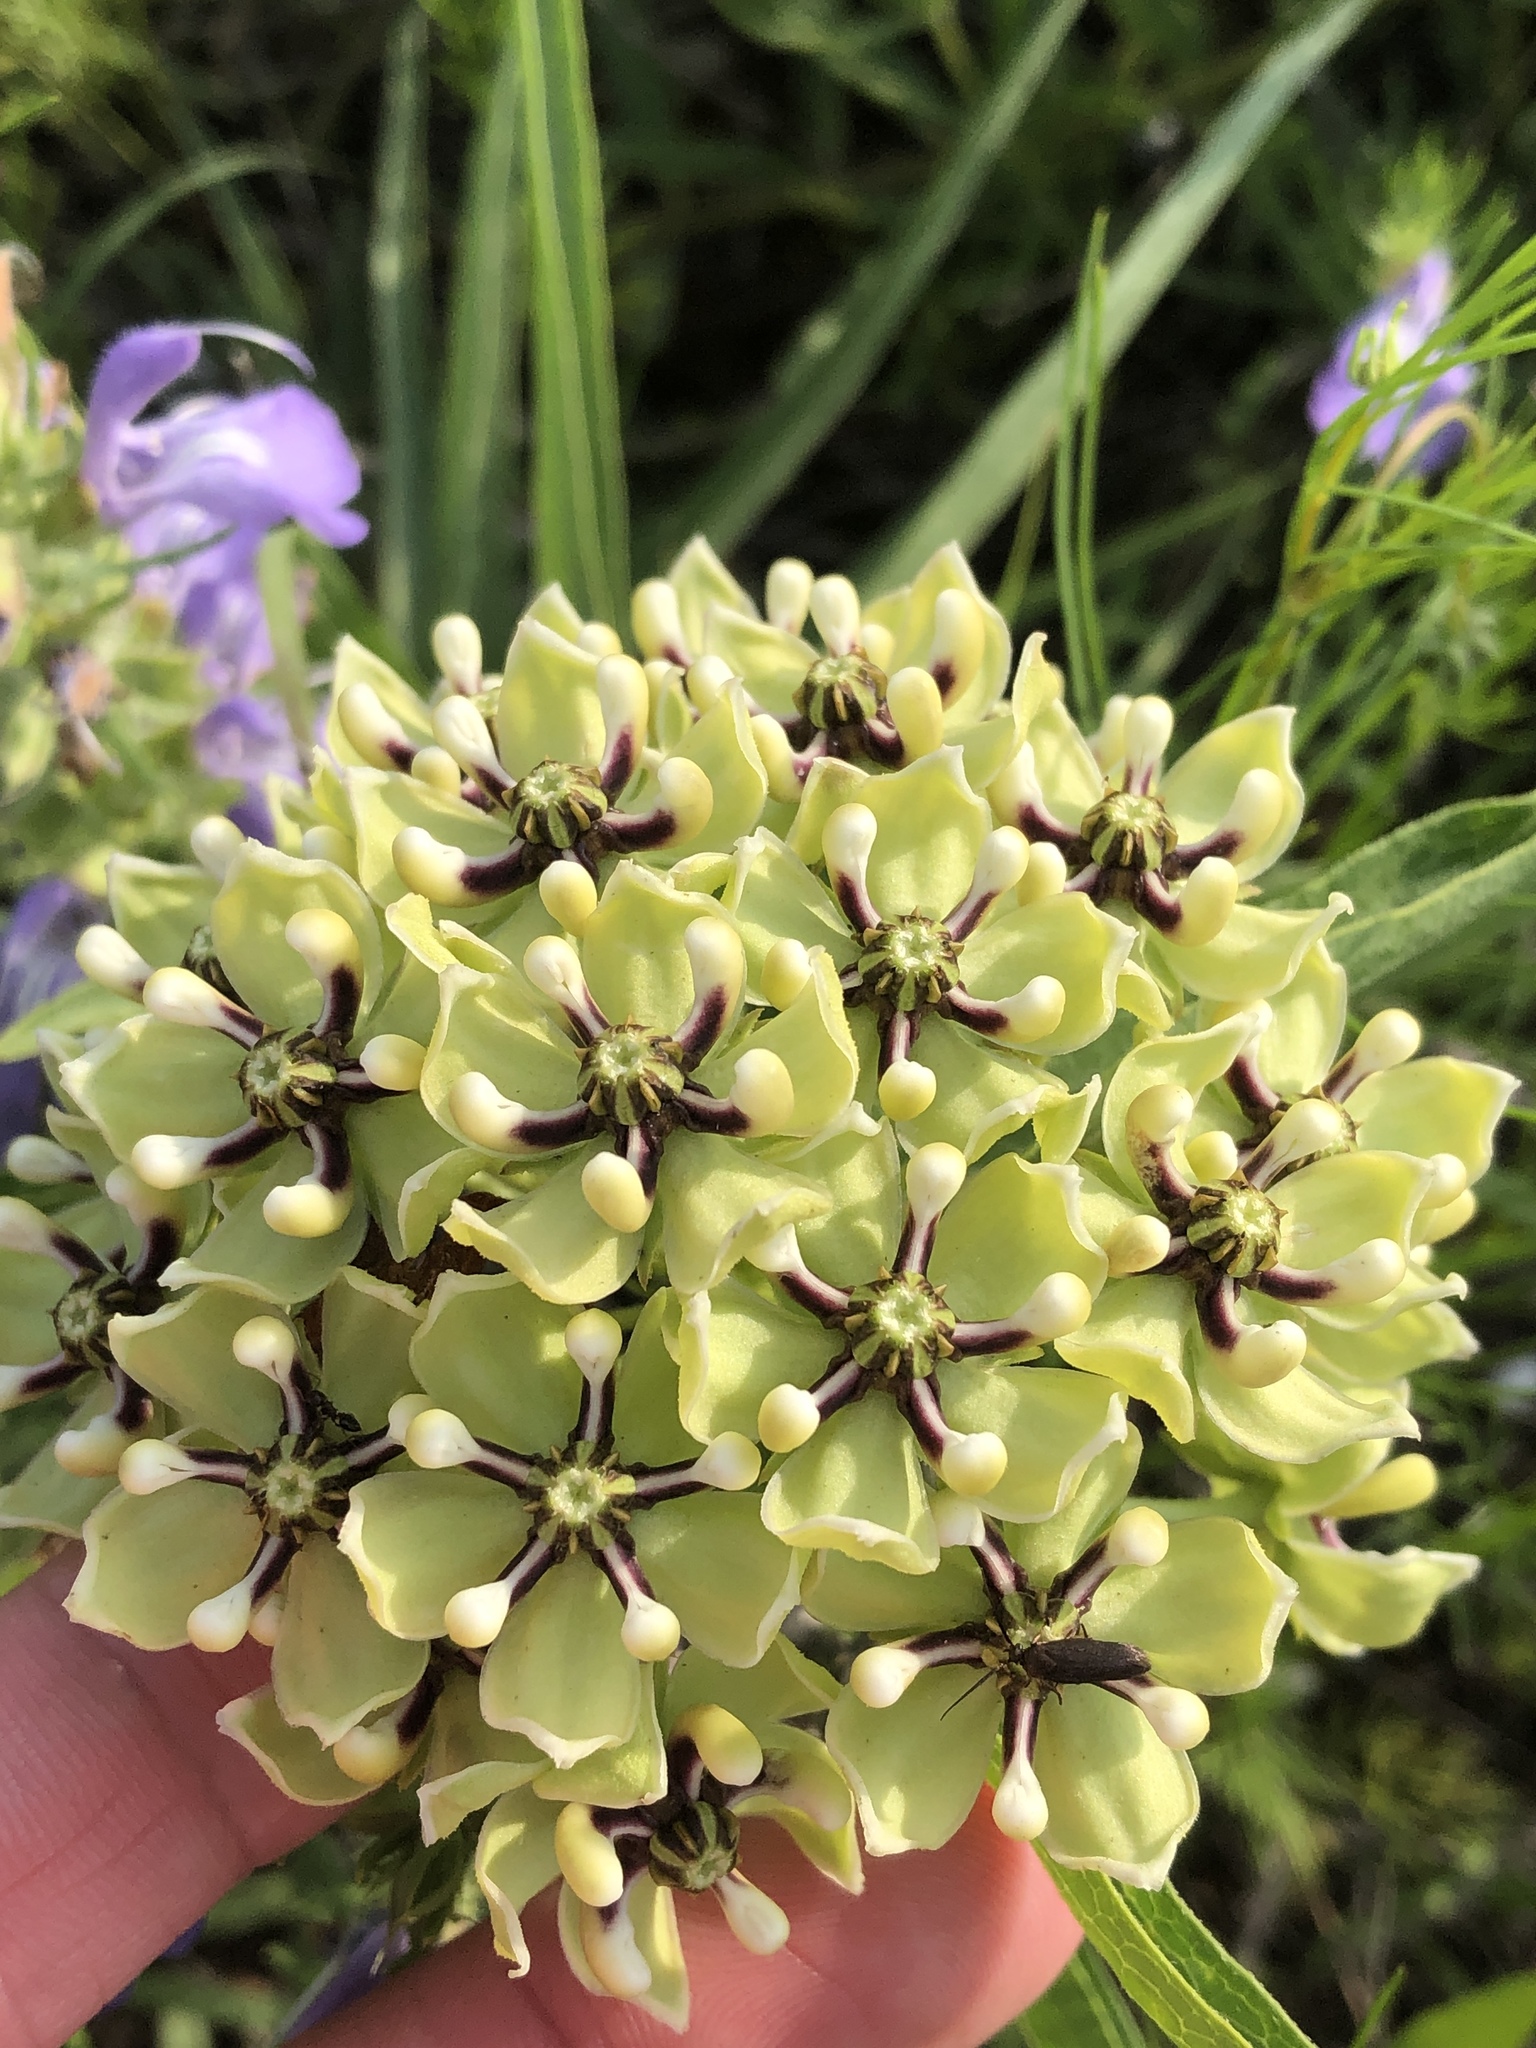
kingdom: Plantae
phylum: Tracheophyta
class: Magnoliopsida
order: Gentianales
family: Apocynaceae
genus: Asclepias
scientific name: Asclepias asperula
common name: Antelope horns
